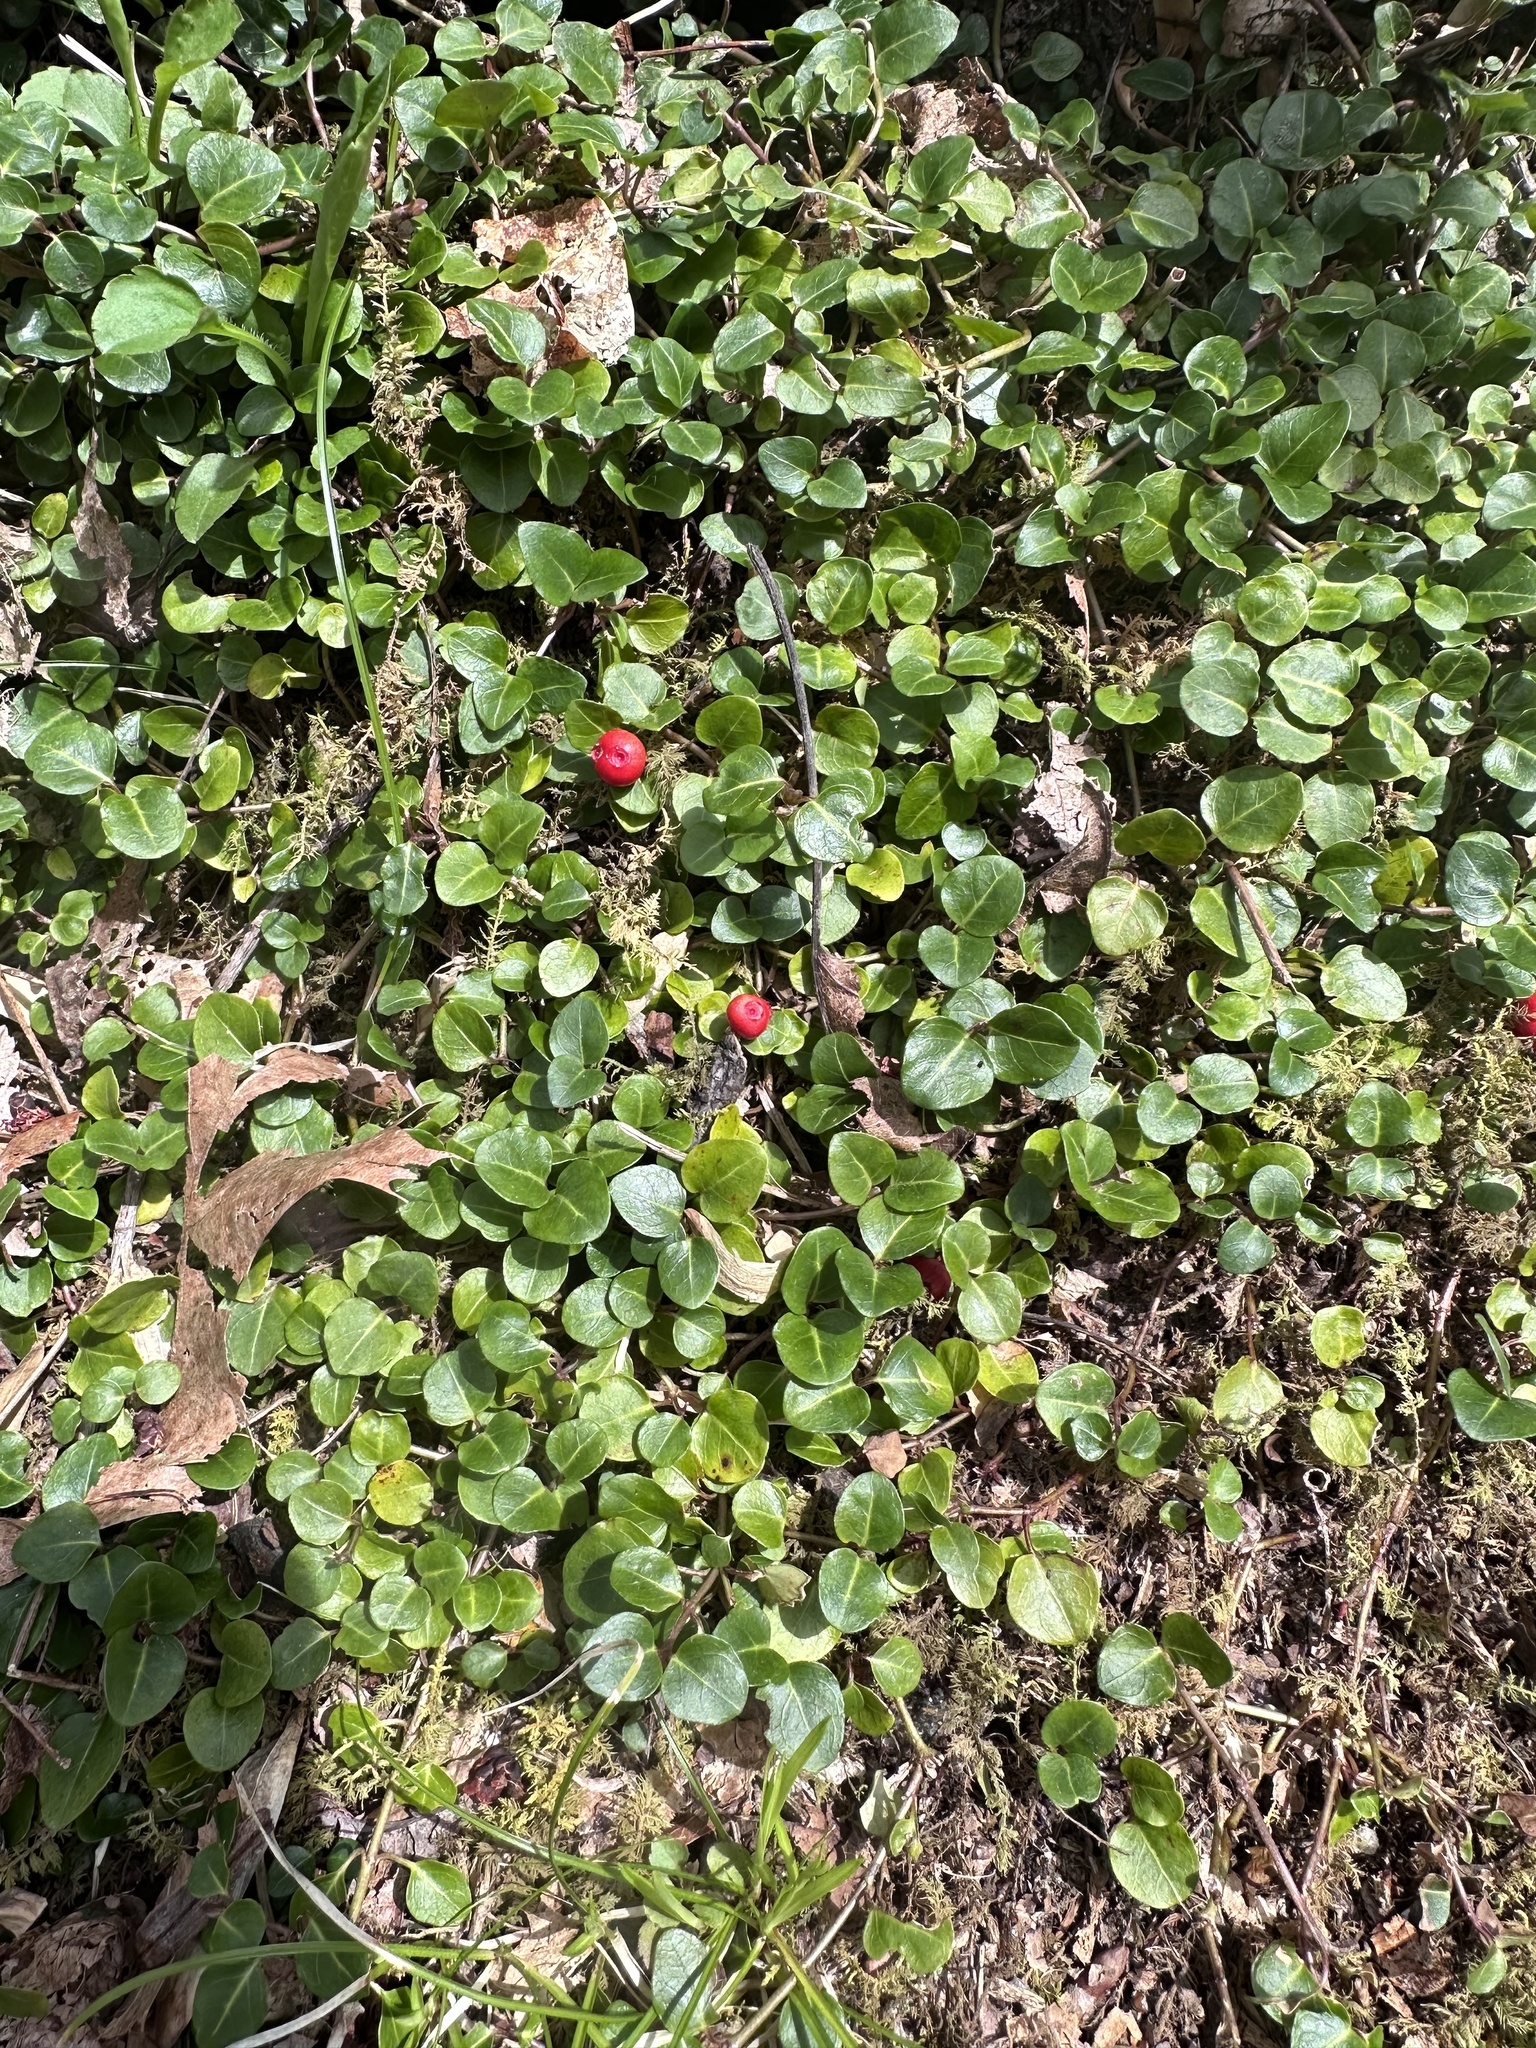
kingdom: Plantae
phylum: Tracheophyta
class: Magnoliopsida
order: Gentianales
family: Rubiaceae
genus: Mitchella
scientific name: Mitchella repens
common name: Partridge-berry
